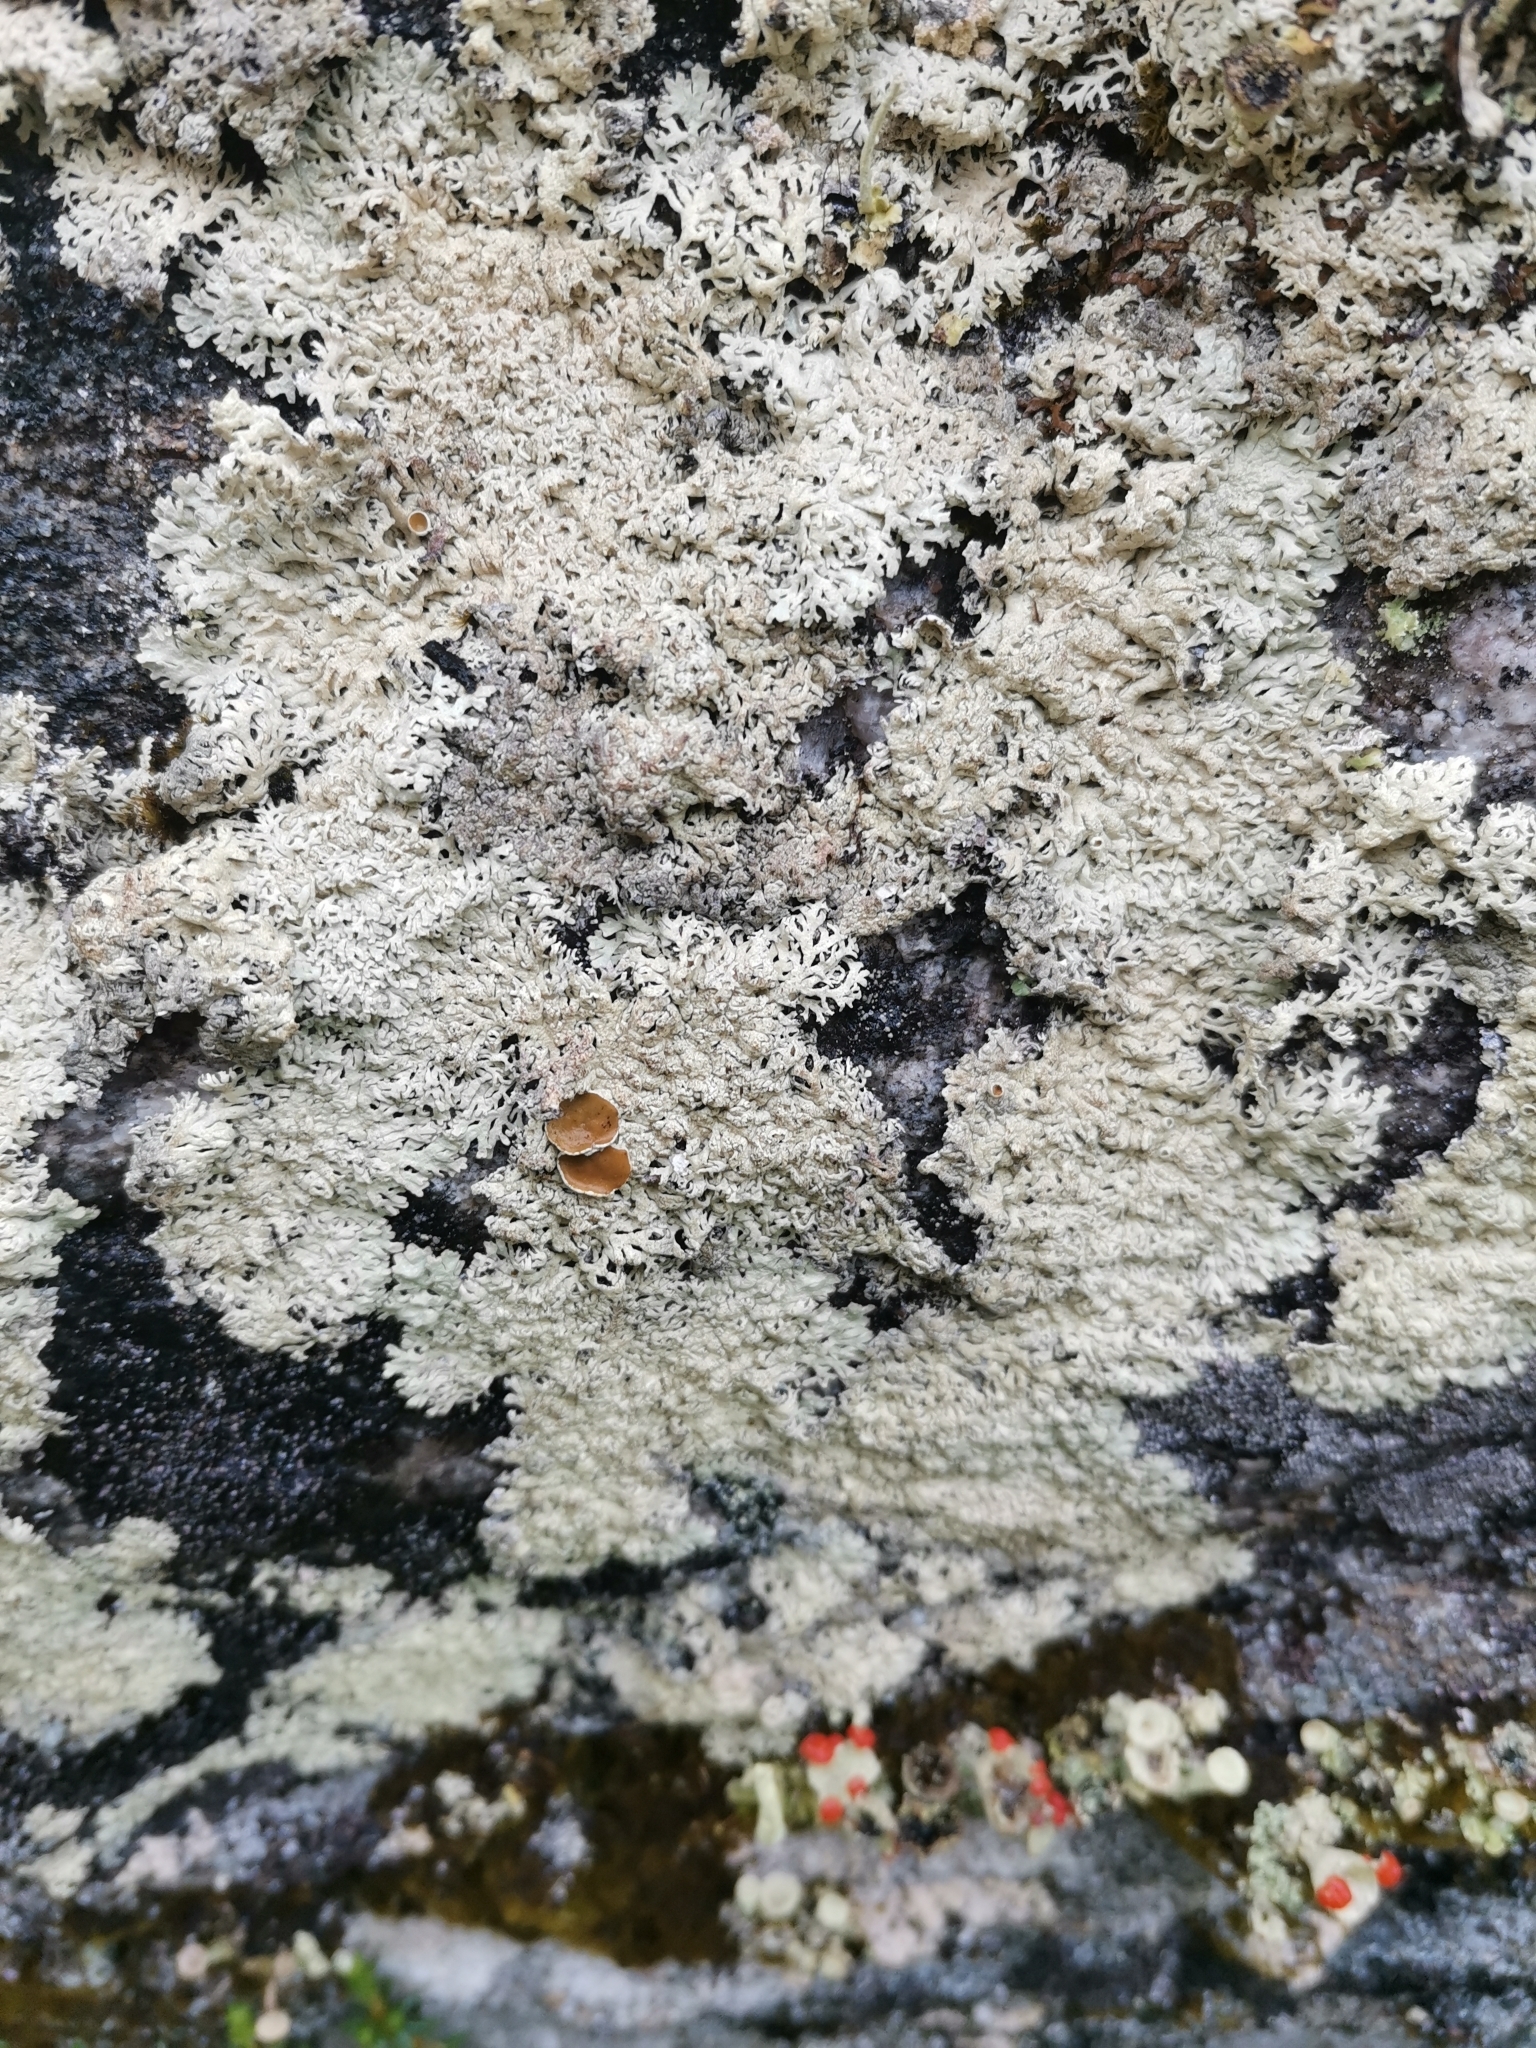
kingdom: Fungi
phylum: Ascomycota
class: Lecanoromycetes
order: Lecanorales
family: Parmeliaceae
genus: Arctoparmelia
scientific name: Arctoparmelia centrifuga
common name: Concentric ring lichen
